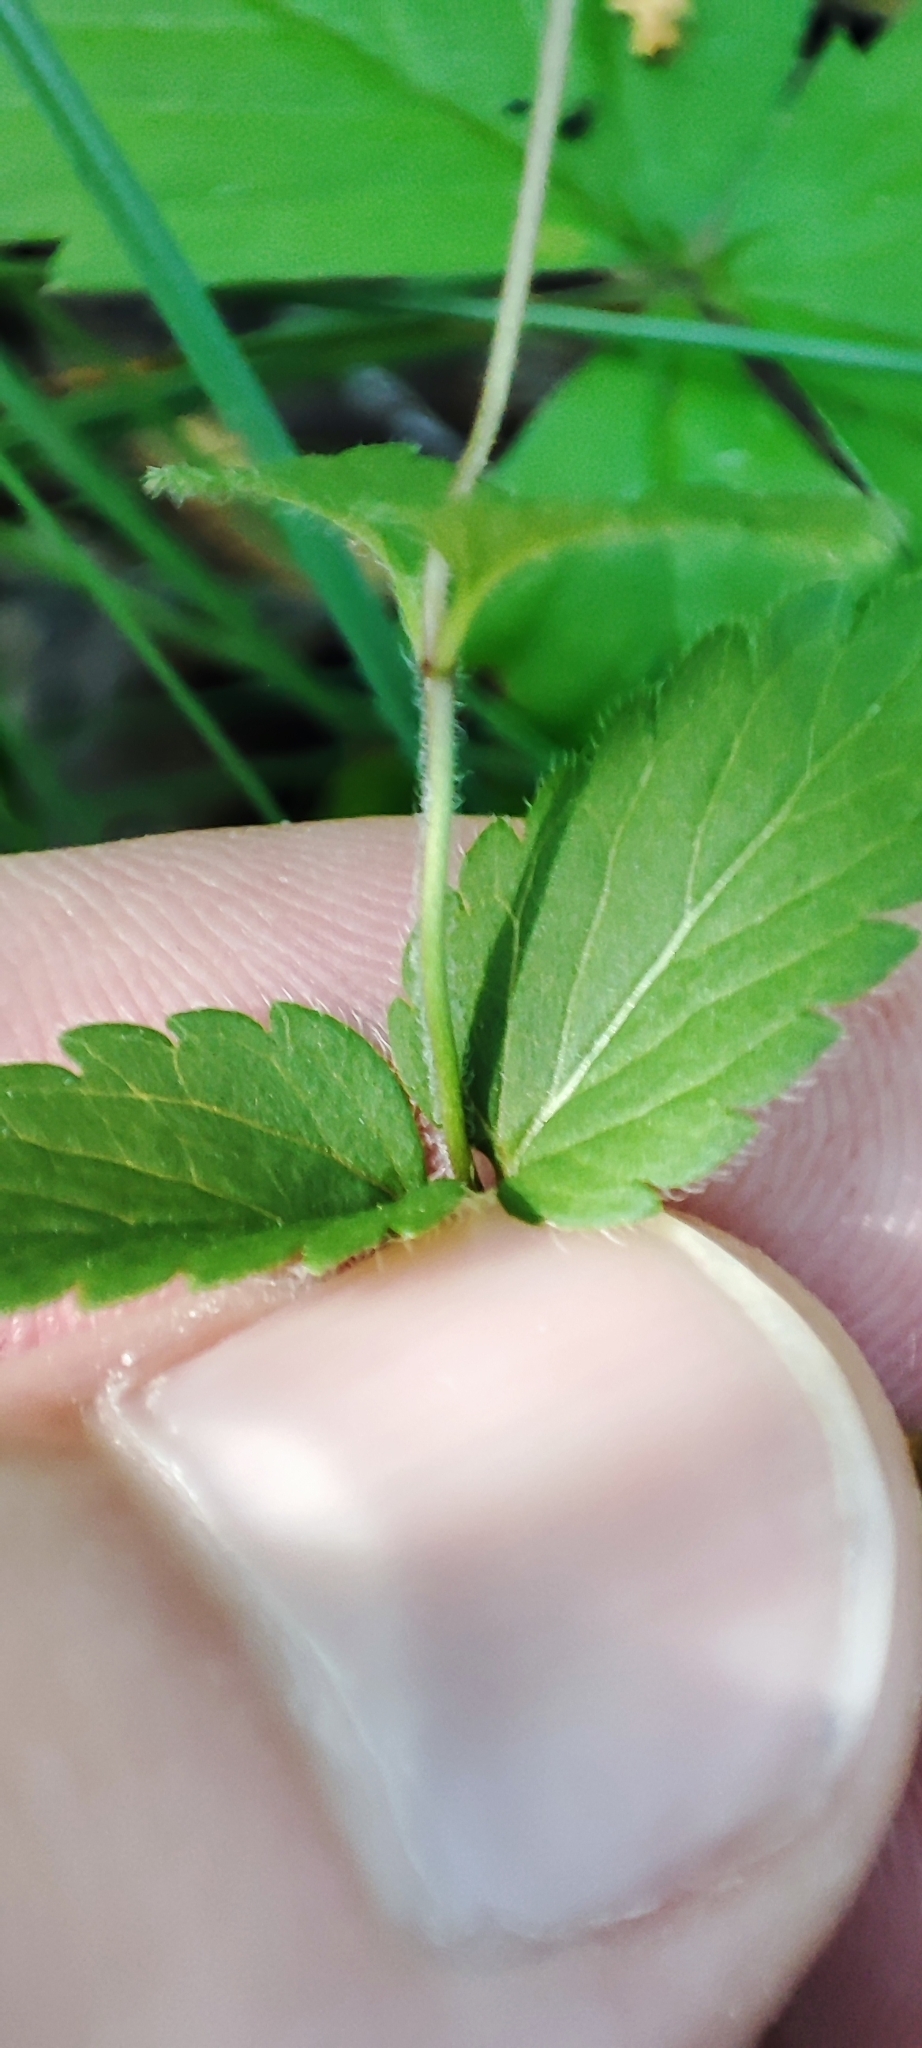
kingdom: Plantae
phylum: Tracheophyta
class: Magnoliopsida
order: Lamiales
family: Plantaginaceae
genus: Veronica
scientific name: Veronica chamaedrys
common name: Germander speedwell
